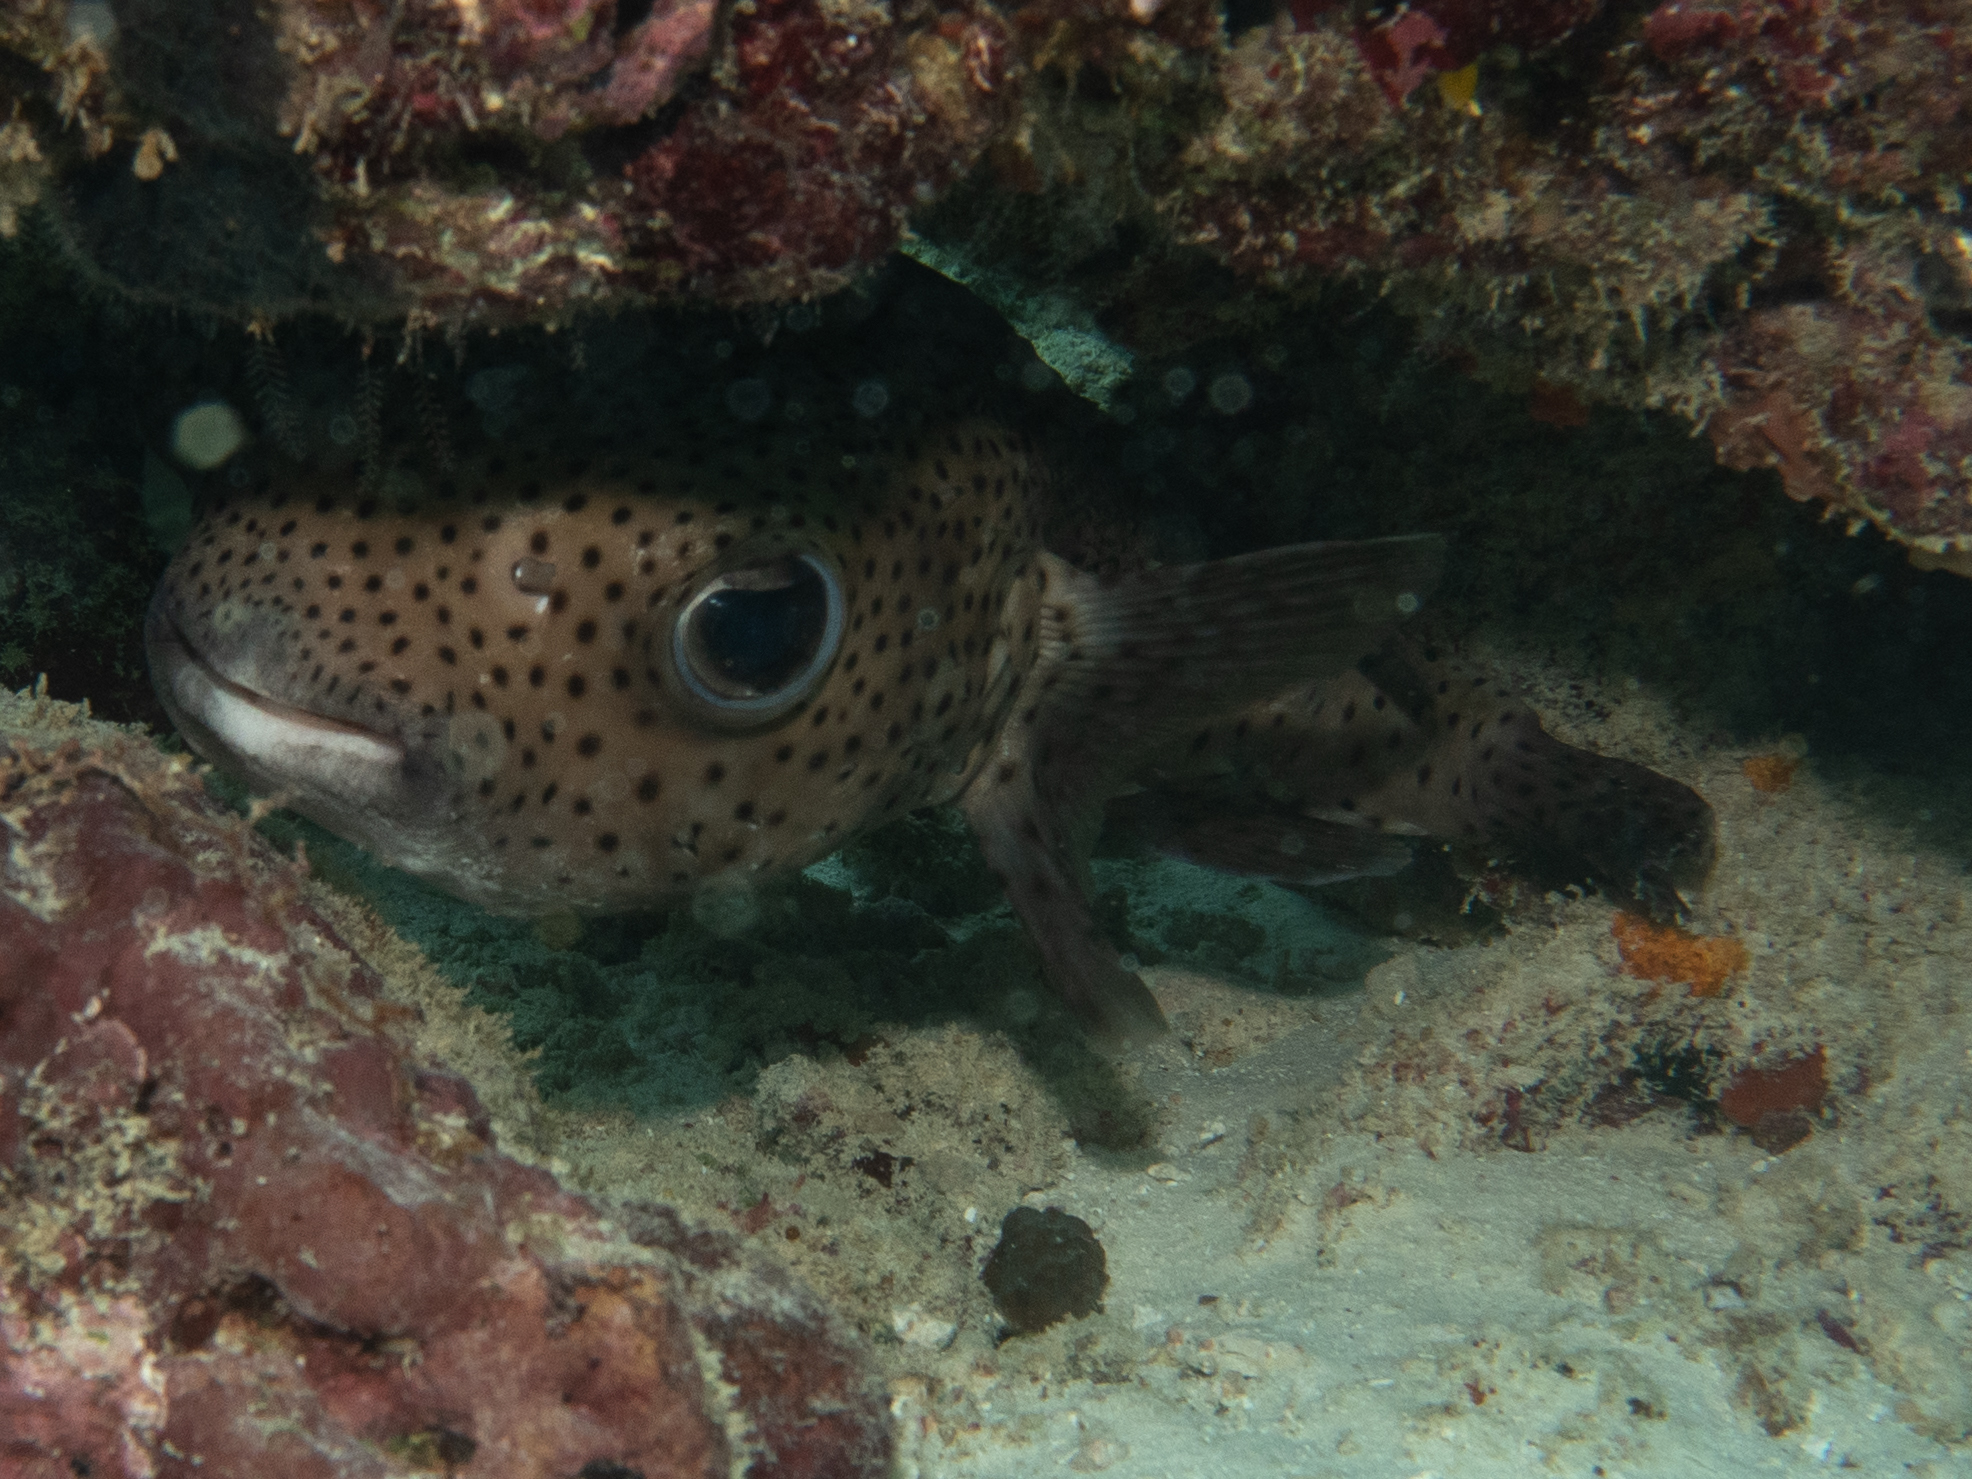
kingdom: Animalia
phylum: Chordata
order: Tetraodontiformes
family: Diodontidae
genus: Diodon
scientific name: Diodon hystrix
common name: Giant porcupinefish
